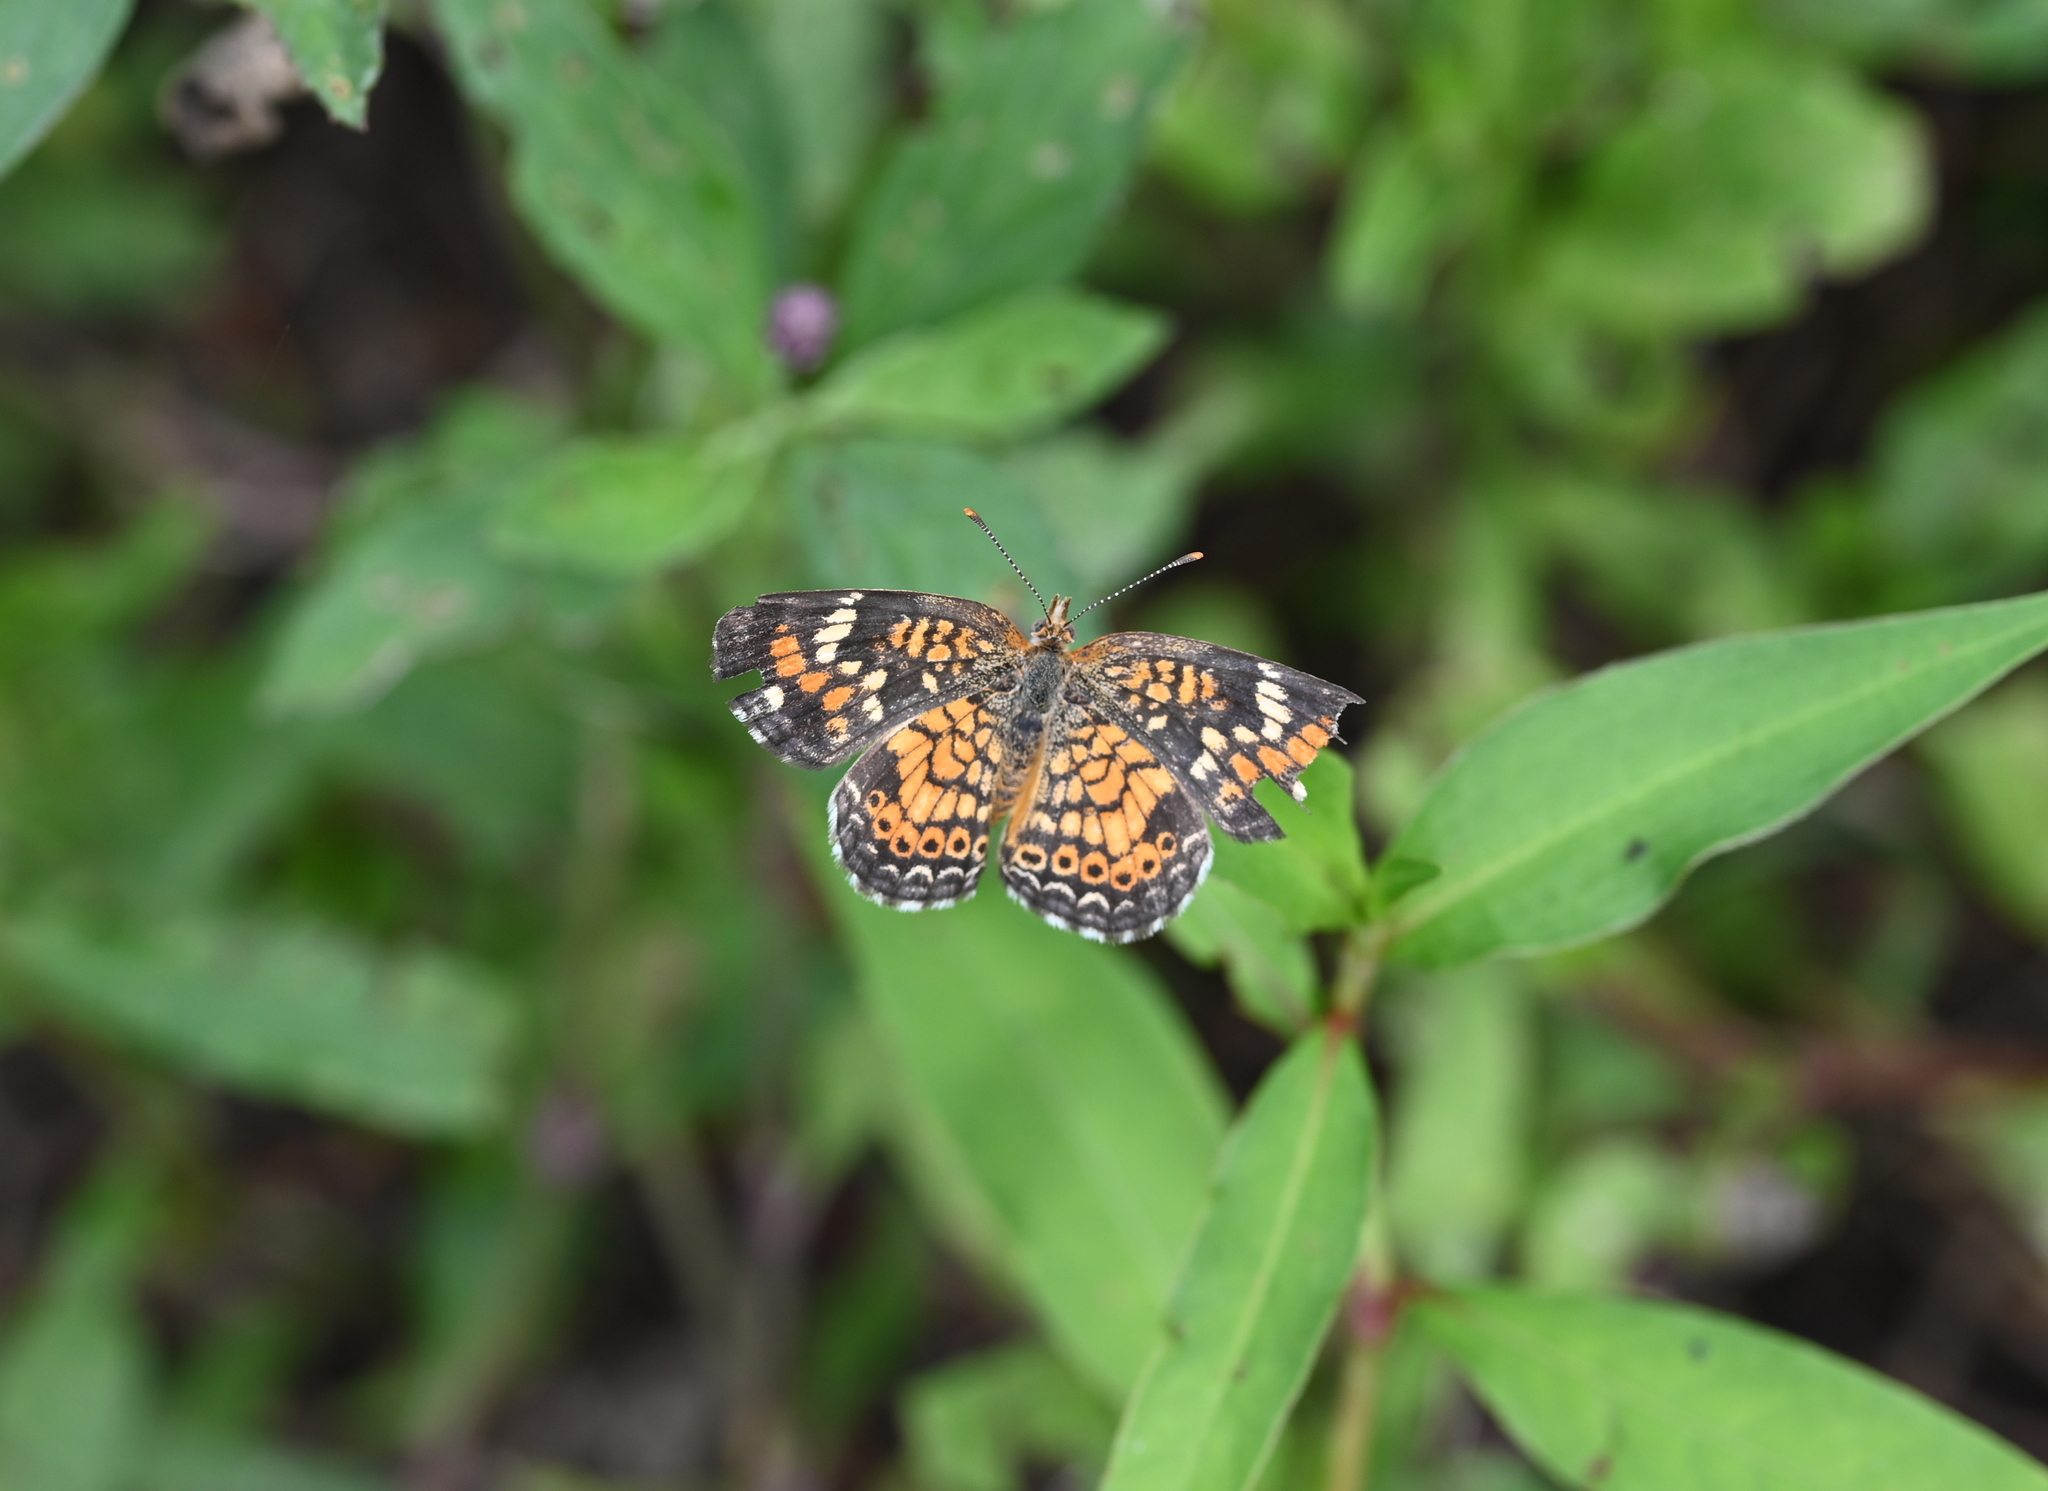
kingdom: Animalia
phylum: Arthropoda
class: Insecta
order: Lepidoptera
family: Nymphalidae
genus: Phyciodes
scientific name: Phyciodes phaon
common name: Phaon crescent
